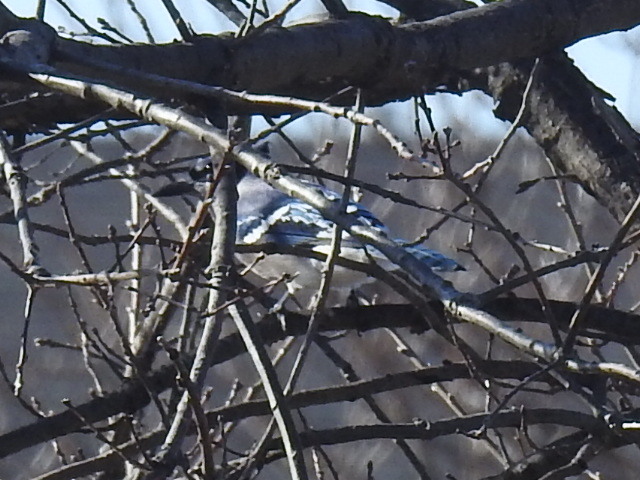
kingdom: Animalia
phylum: Chordata
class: Aves
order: Passeriformes
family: Corvidae
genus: Cyanocitta
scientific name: Cyanocitta cristata
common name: Blue jay
